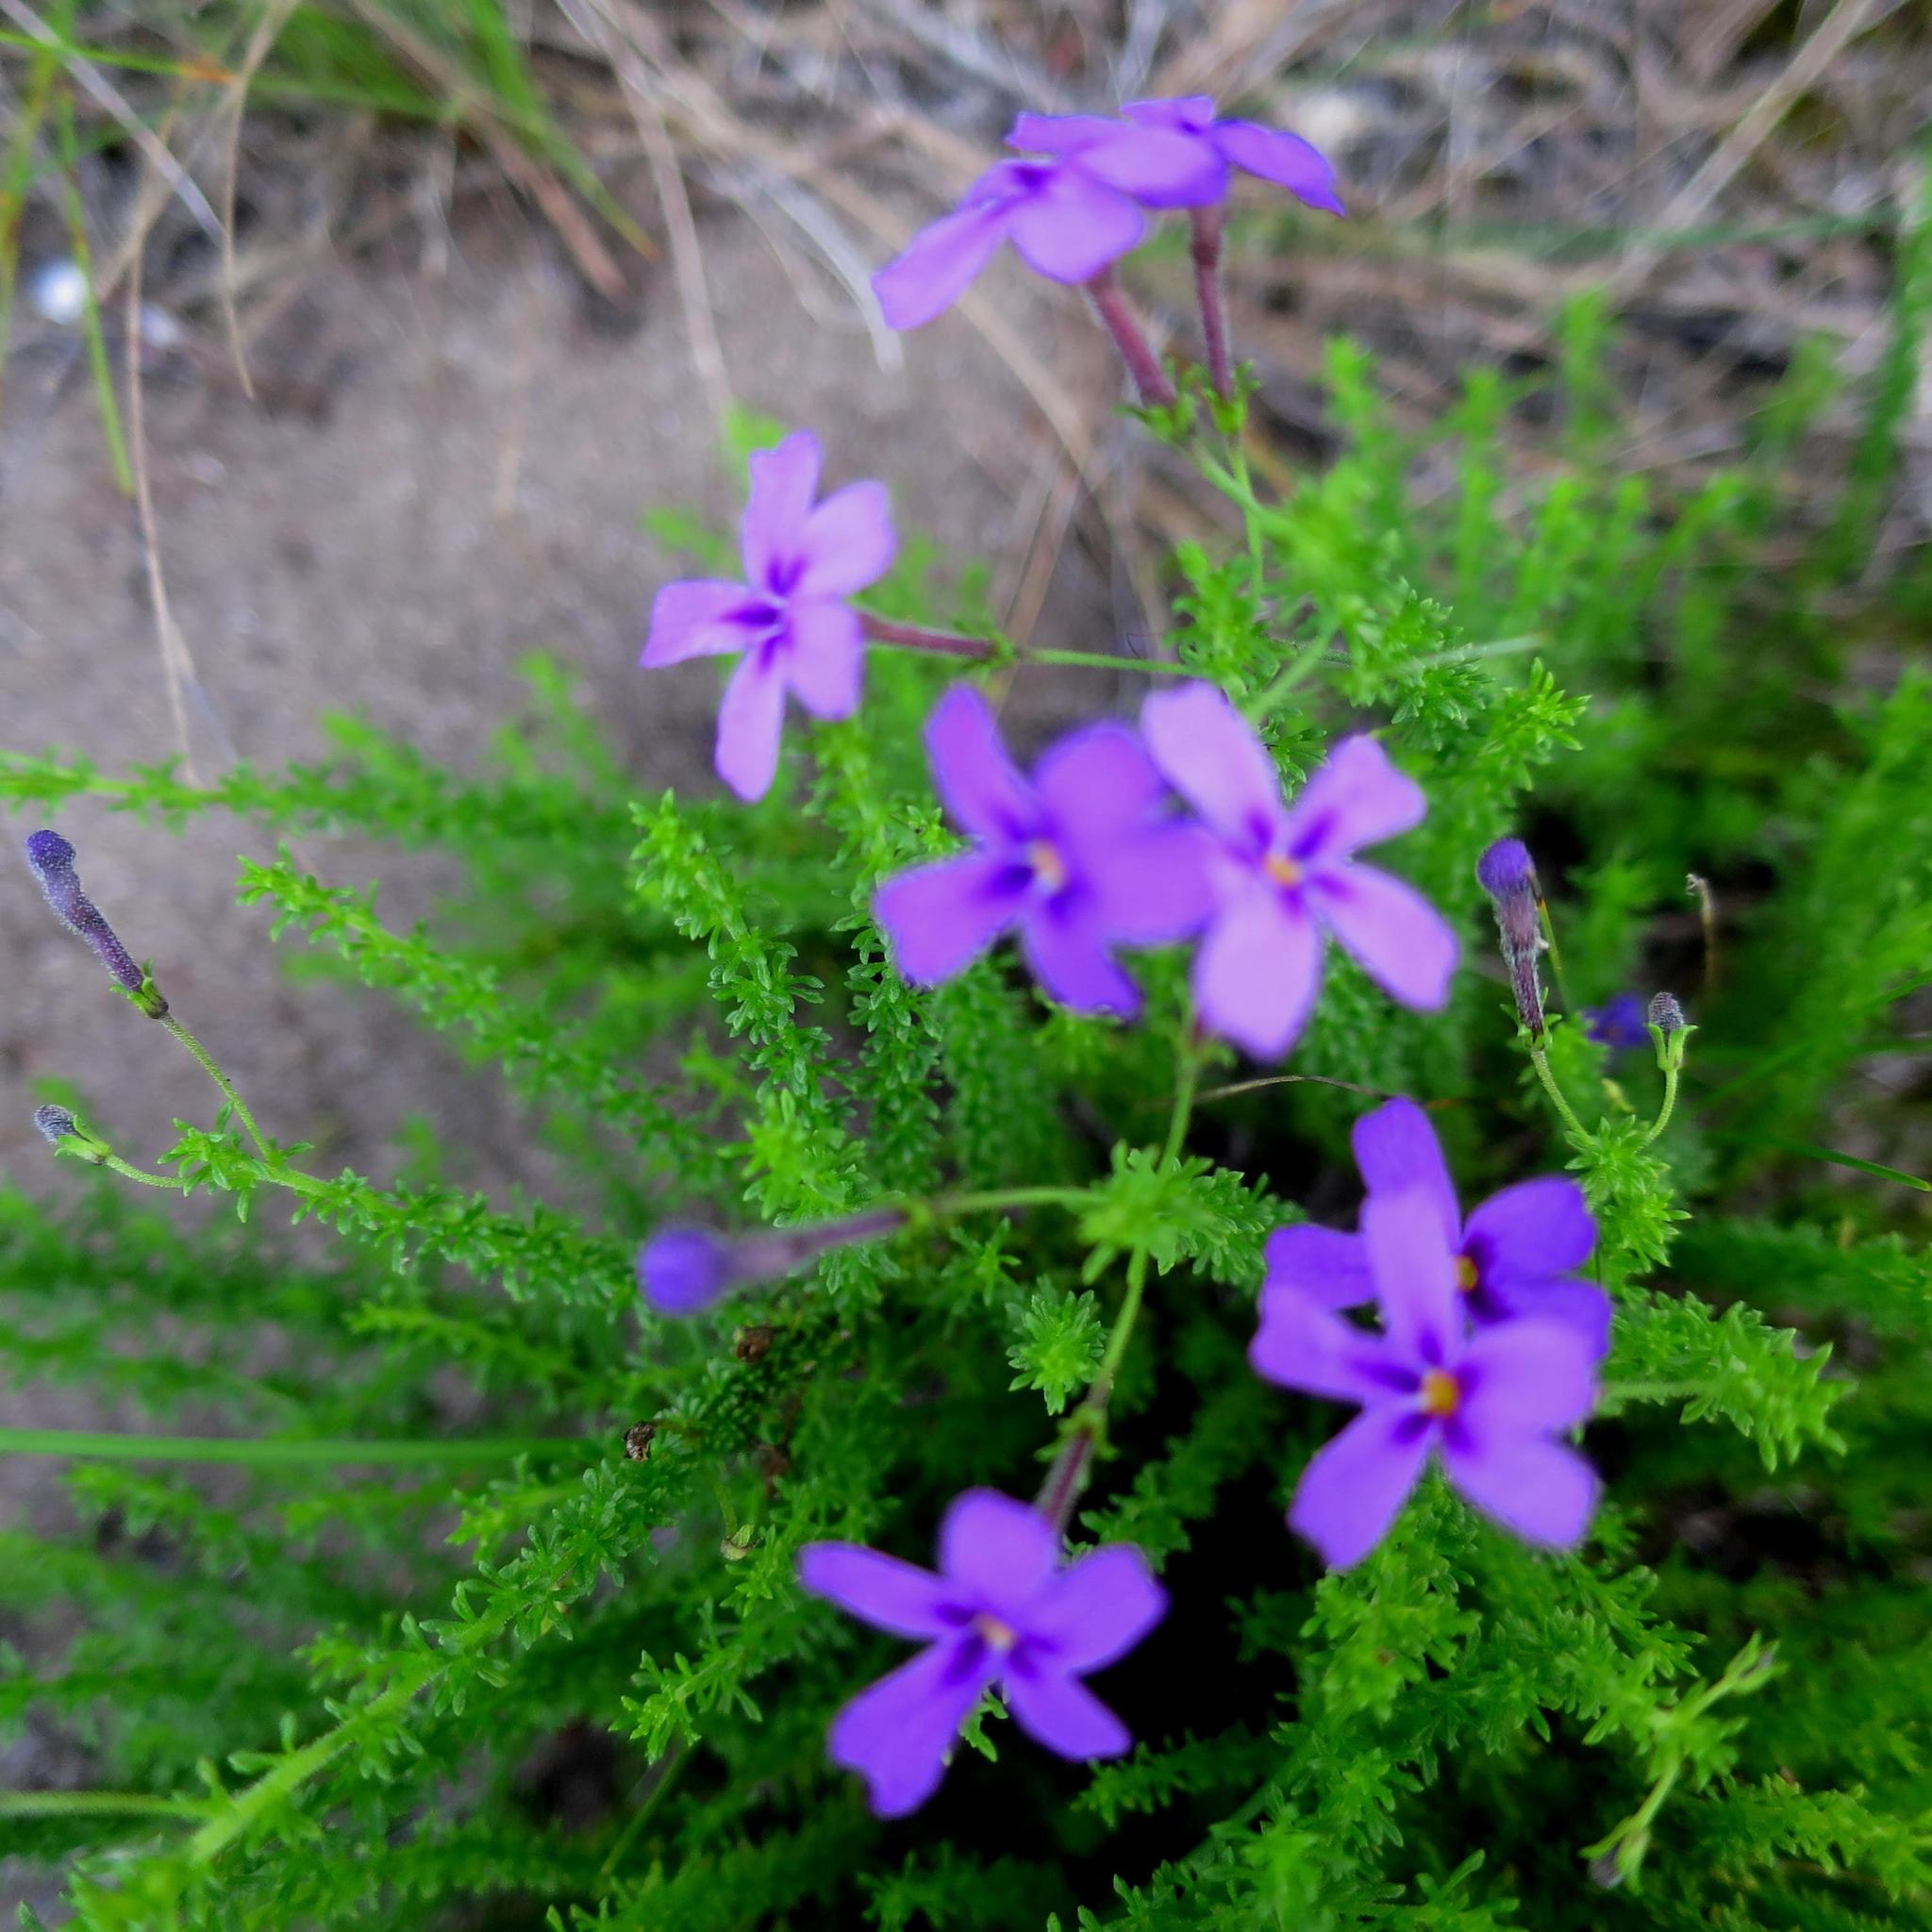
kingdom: Plantae
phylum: Tracheophyta
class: Magnoliopsida
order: Lamiales
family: Scrophulariaceae
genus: Jamesbrittenia
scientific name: Jamesbrittenia microphylla
